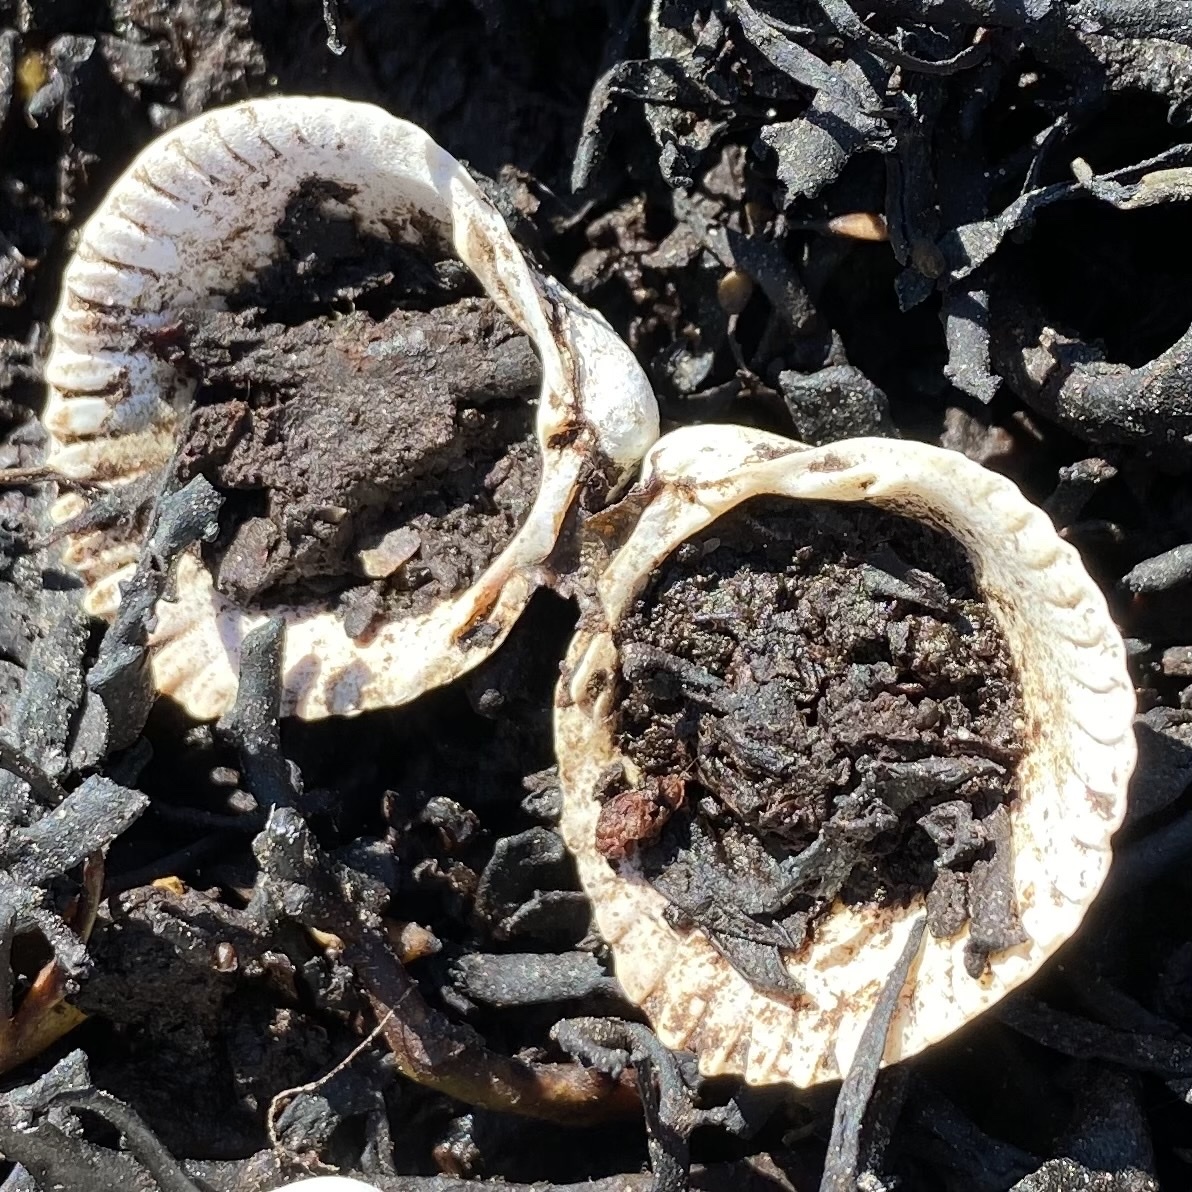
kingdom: Animalia
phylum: Mollusca
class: Bivalvia
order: Cardiida
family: Cardiidae
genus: Cerastoderma
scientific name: Cerastoderma edule
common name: Common cockle
